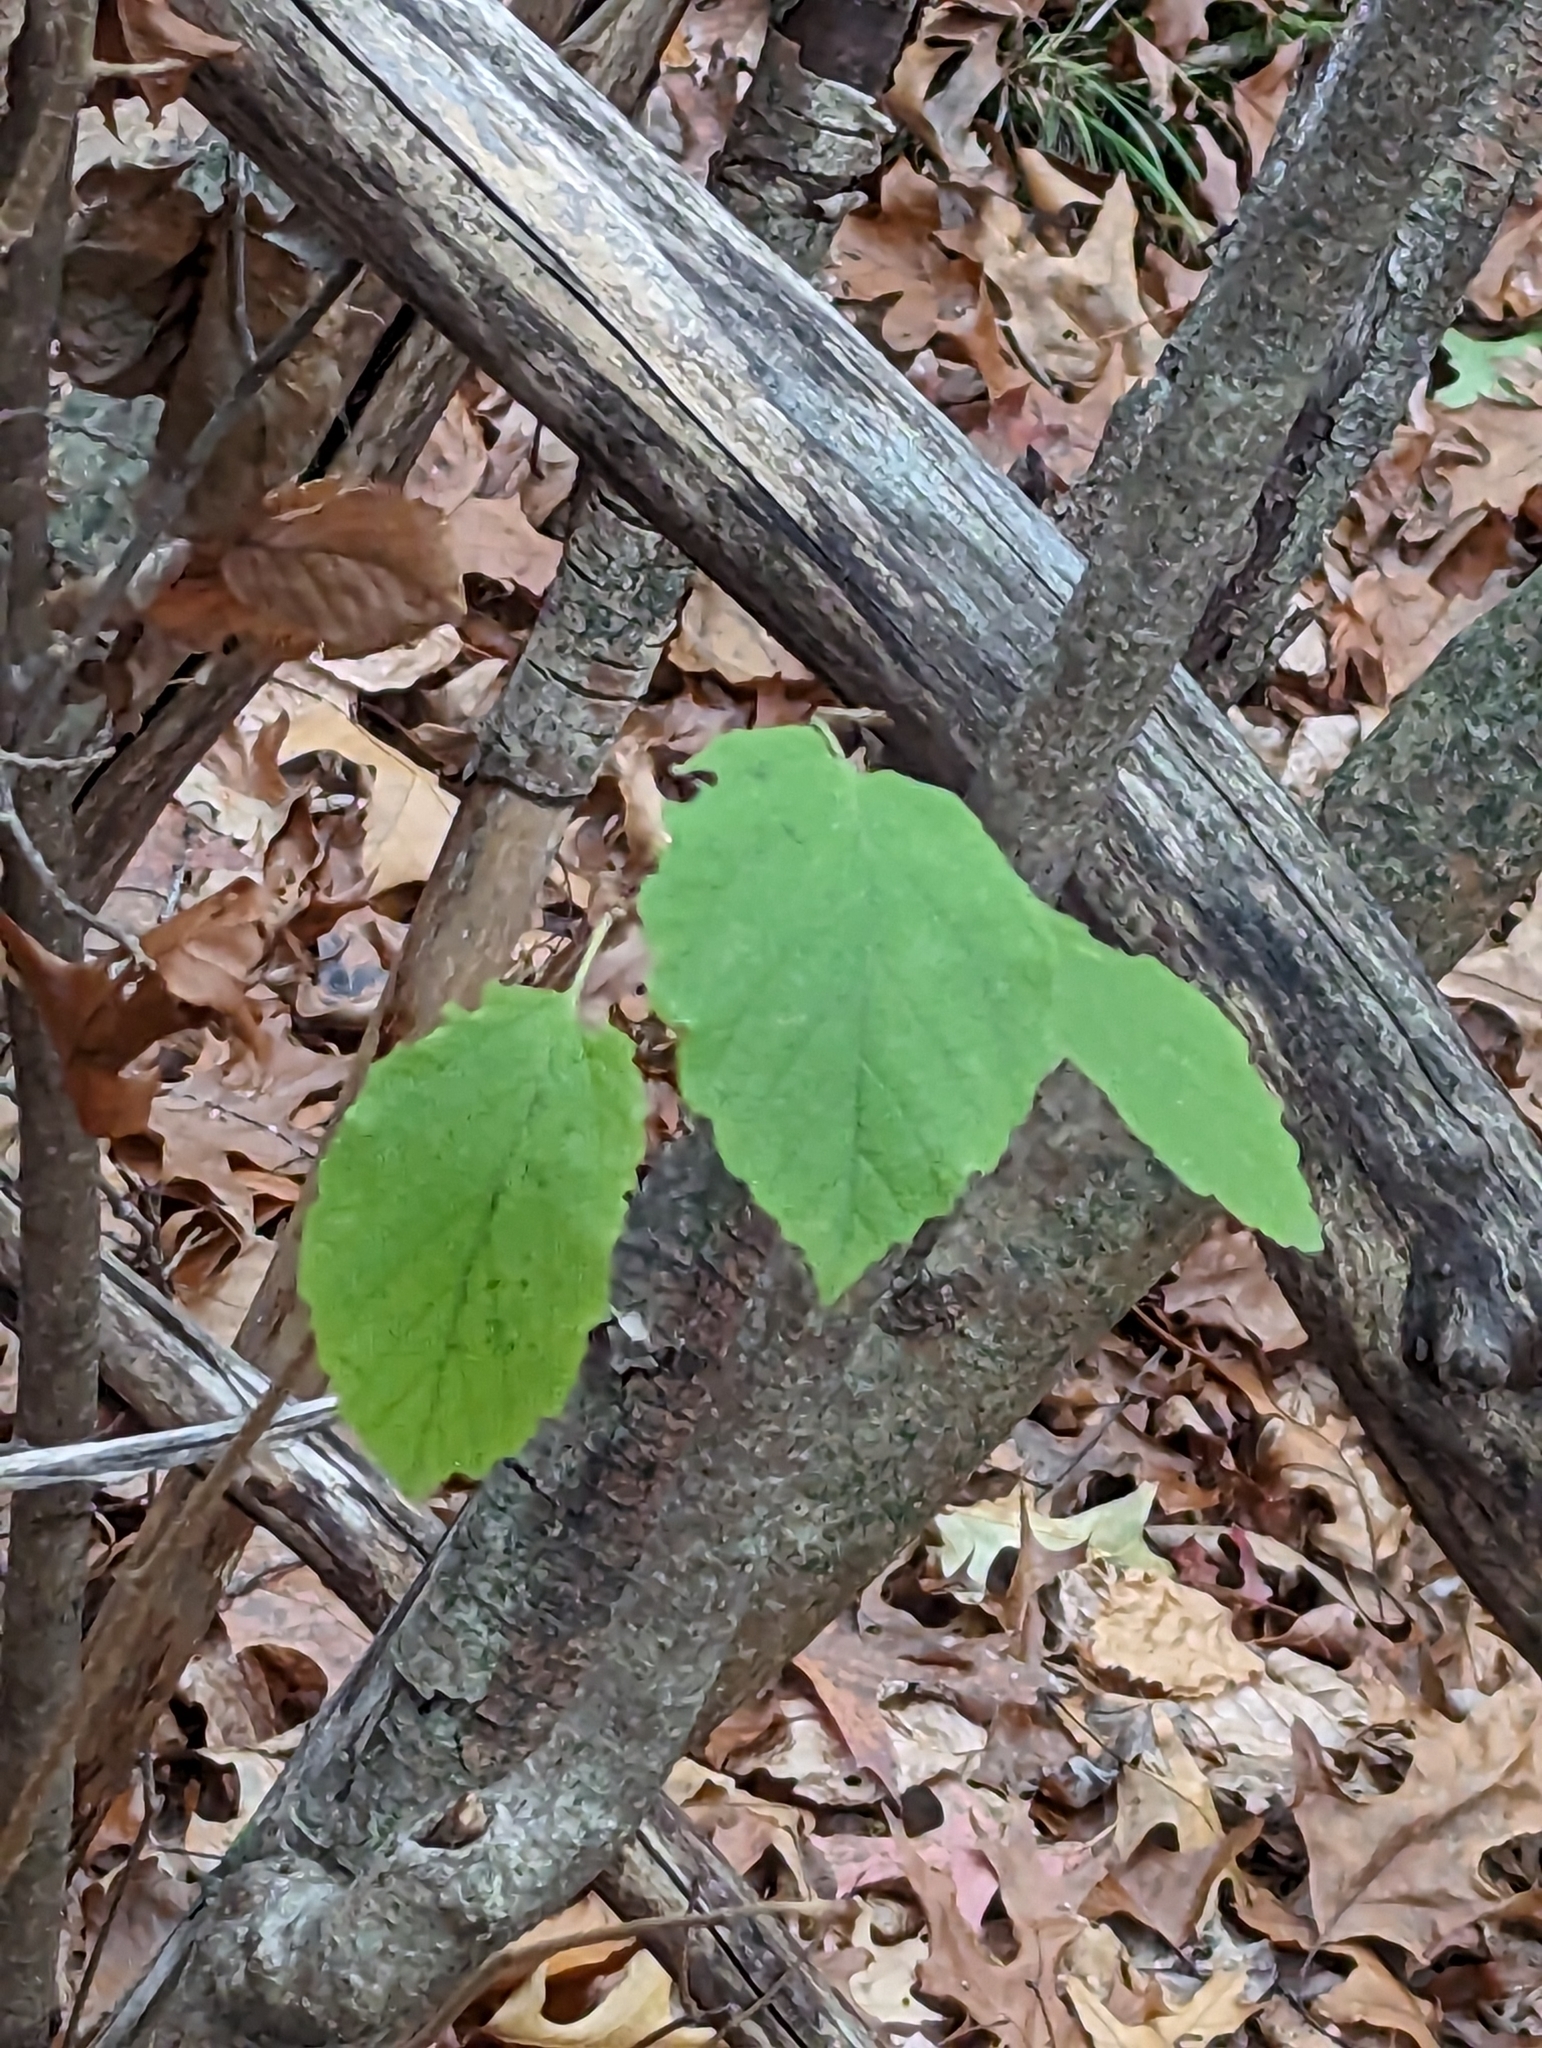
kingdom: Plantae
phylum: Tracheophyta
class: Magnoliopsida
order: Saxifragales
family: Hamamelidaceae
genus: Hamamelis
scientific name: Hamamelis virginiana
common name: Witch-hazel
